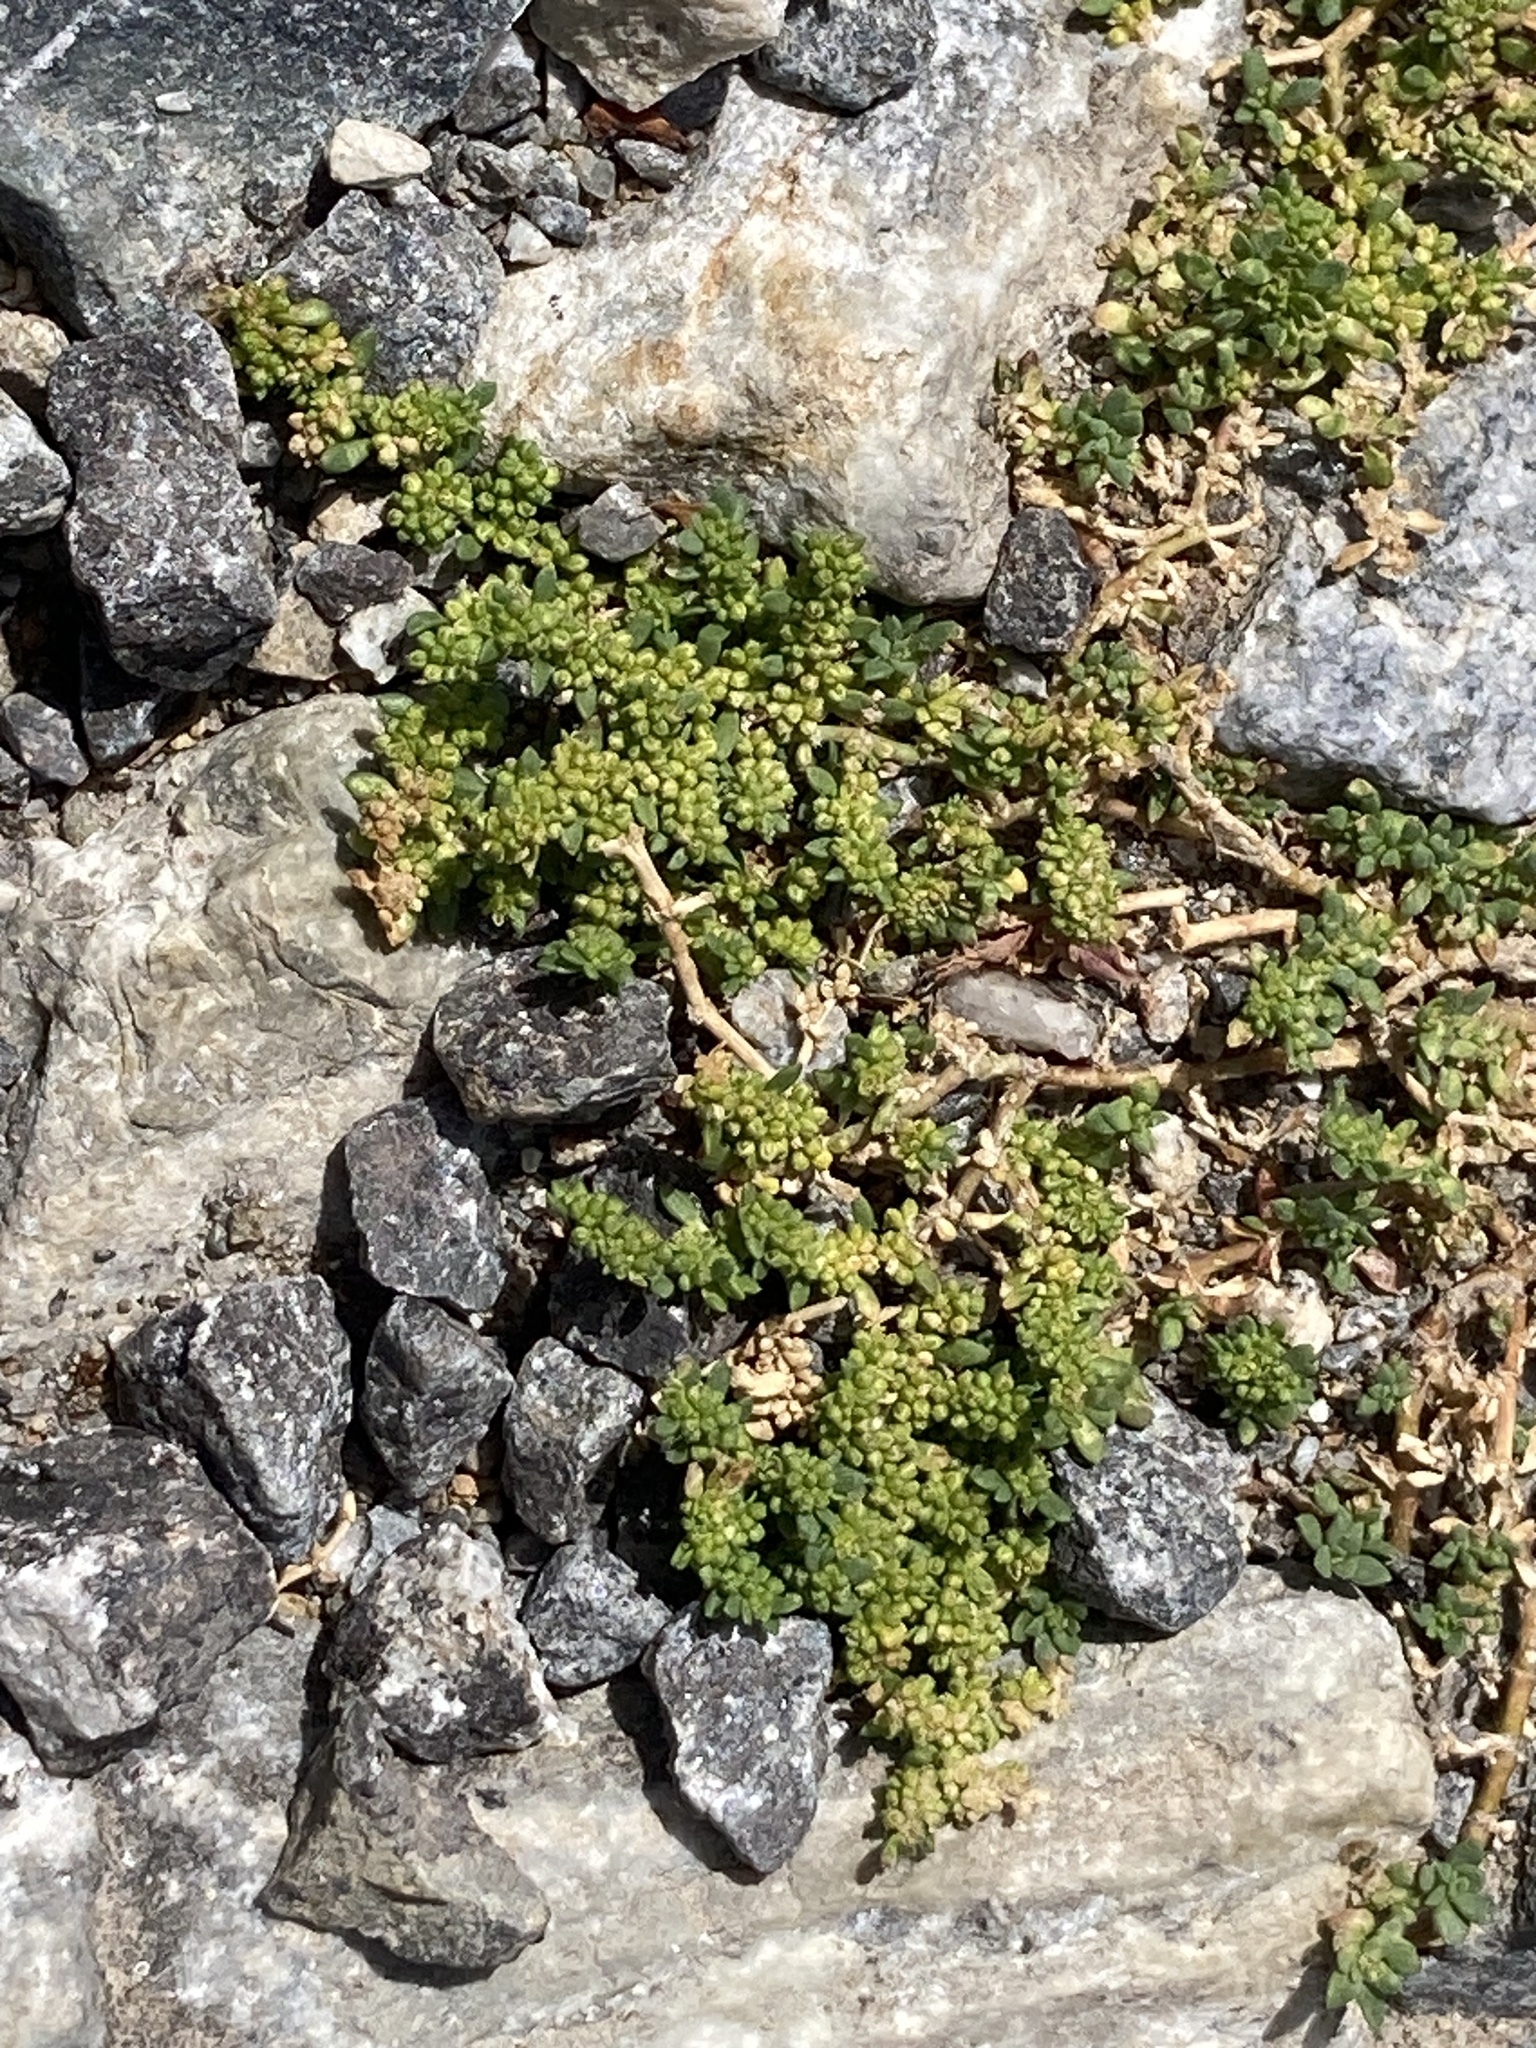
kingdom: Plantae
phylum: Tracheophyta
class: Magnoliopsida
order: Caryophyllales
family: Caryophyllaceae
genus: Herniaria
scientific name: Herniaria glabra
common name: Smooth rupturewort
